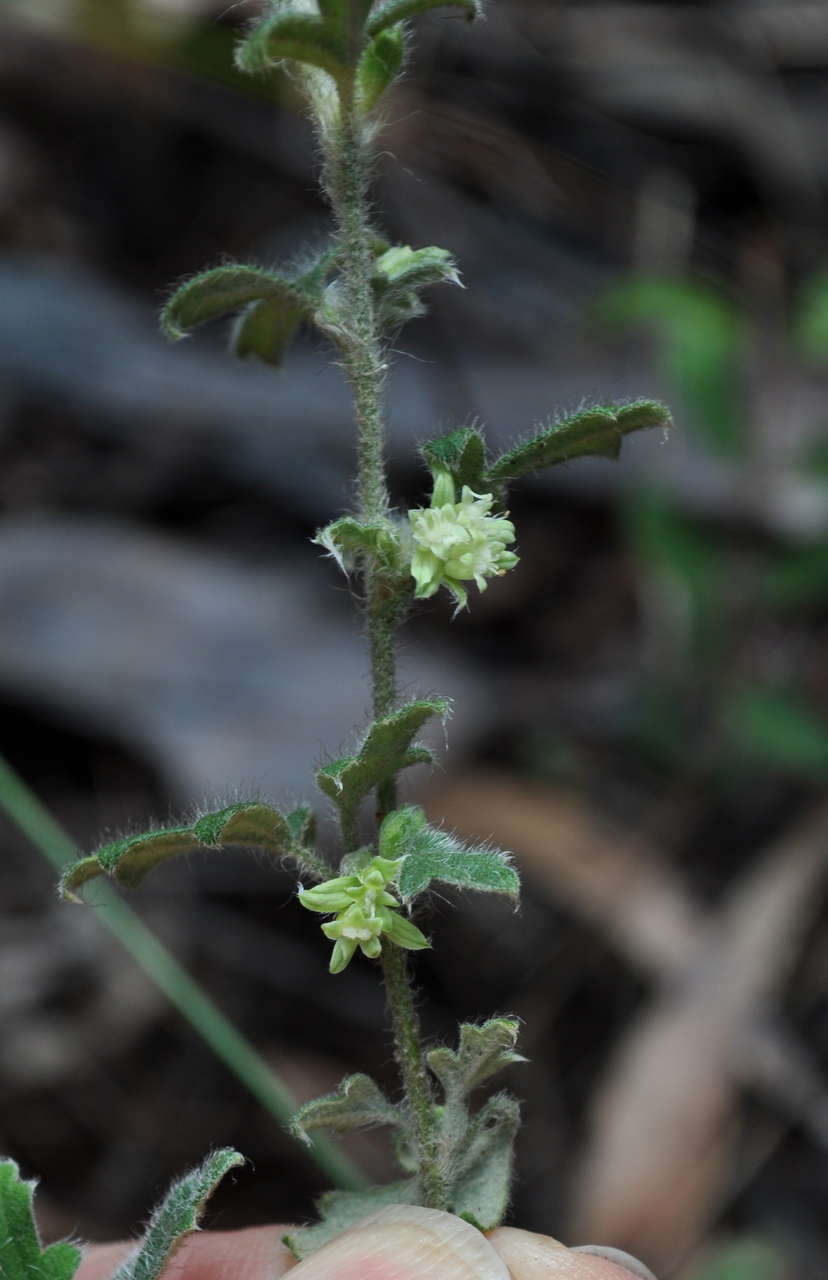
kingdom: Plantae
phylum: Tracheophyta
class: Magnoliopsida
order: Apiales
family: Apiaceae
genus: Xanthosia
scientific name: Xanthosia pilosa
